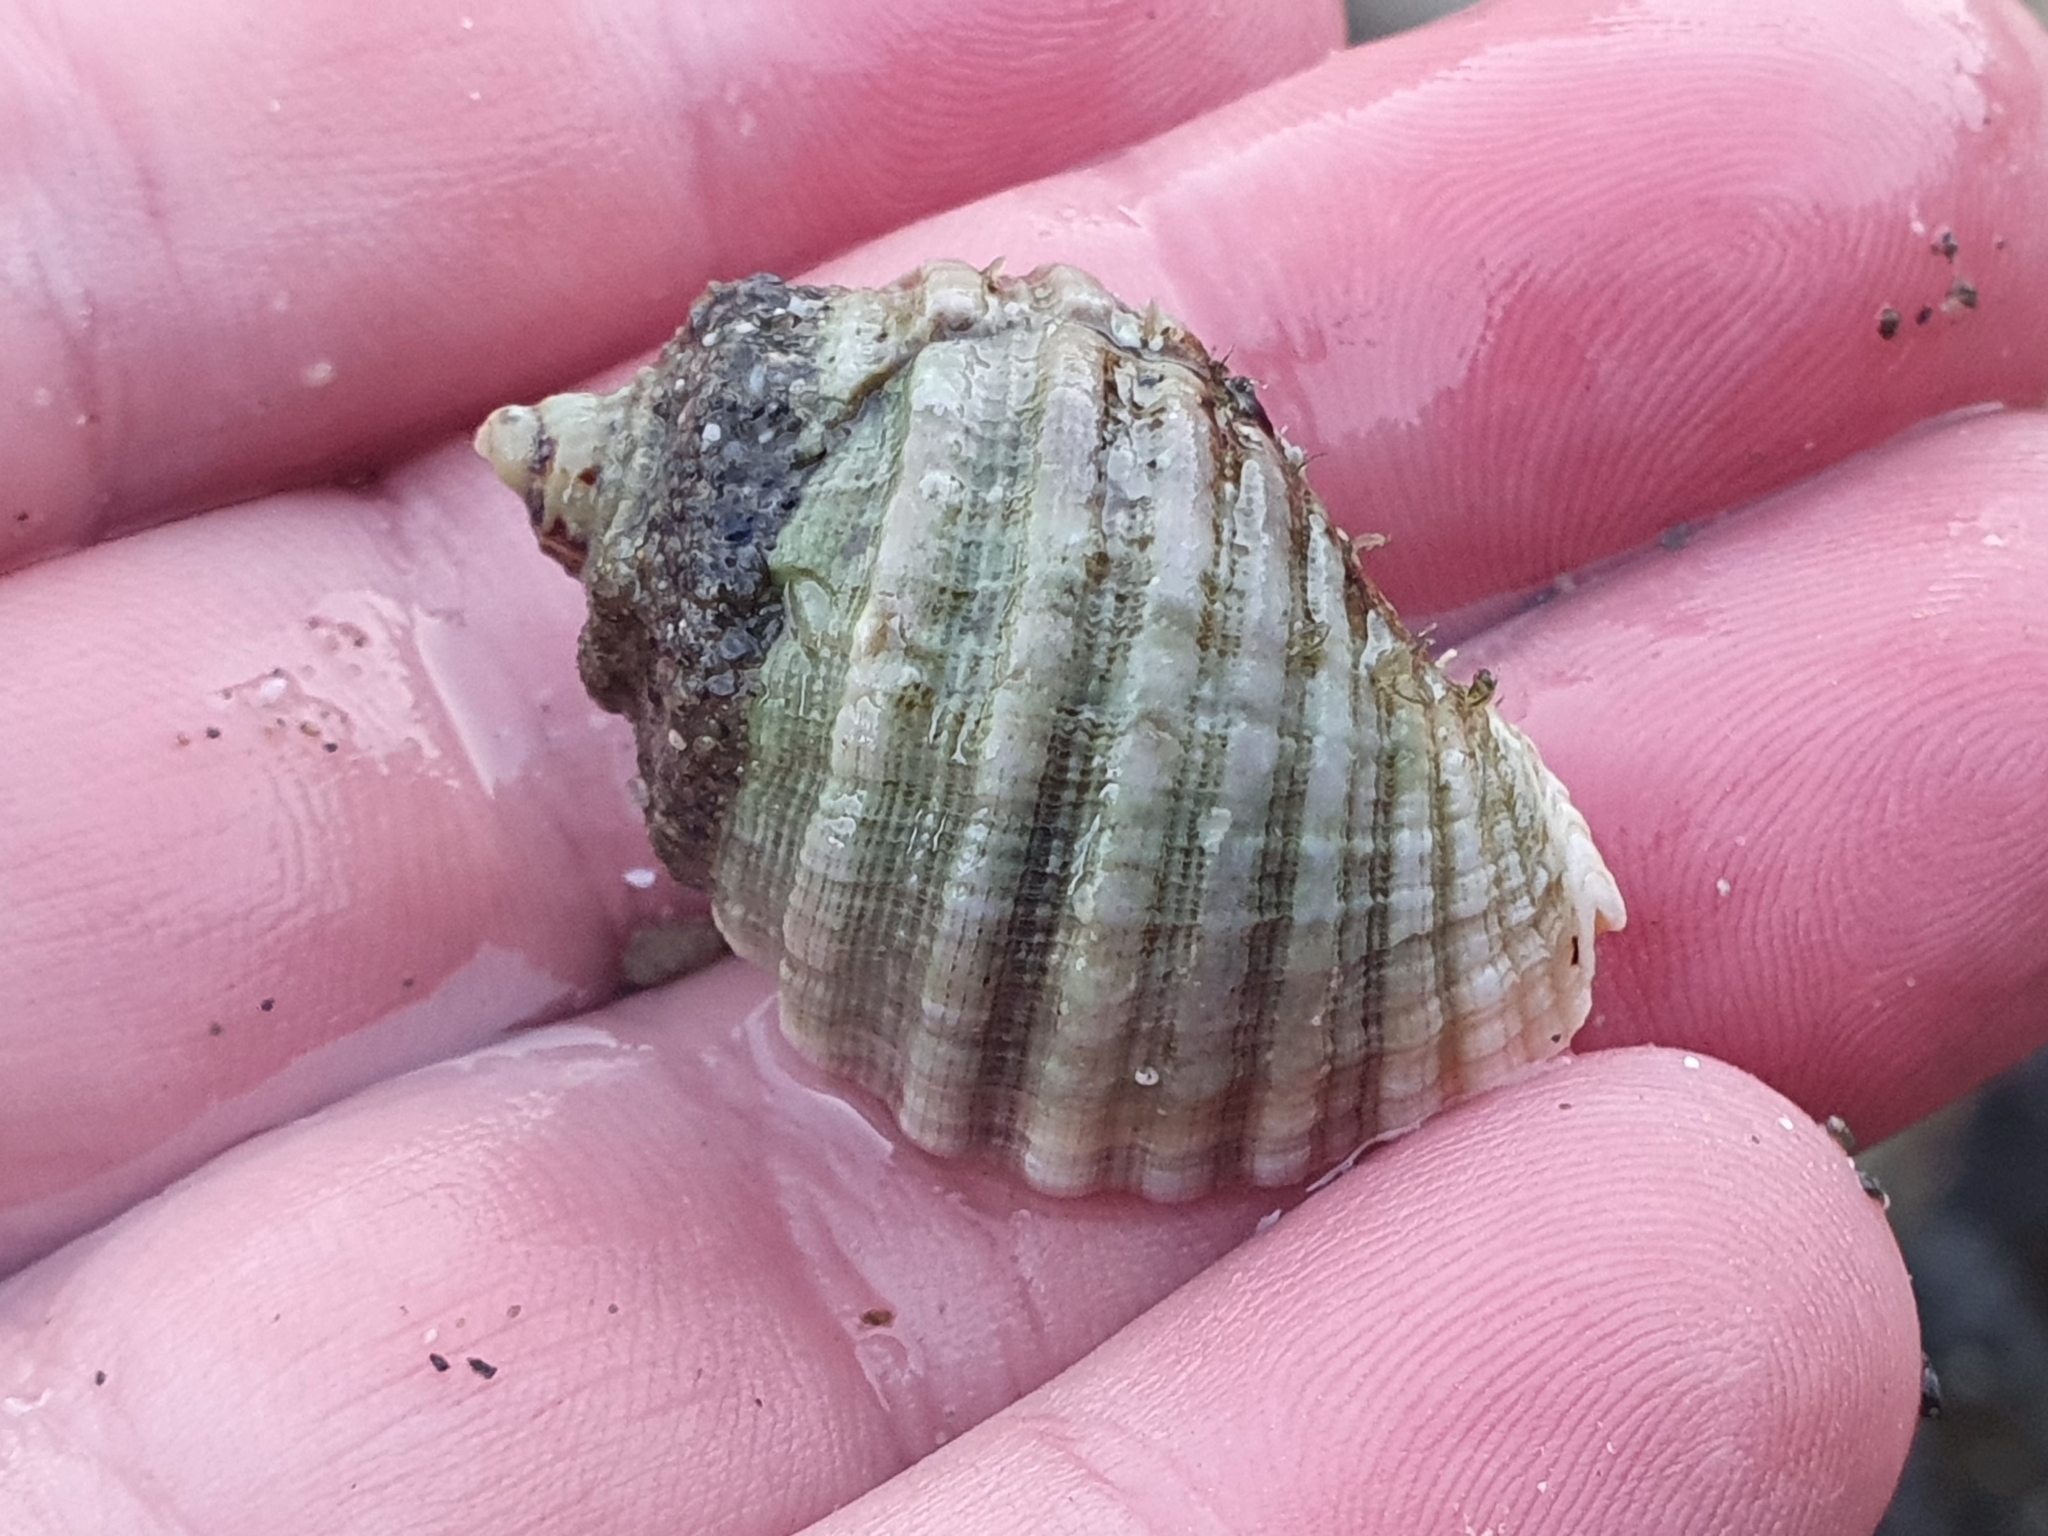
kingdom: Animalia
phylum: Mollusca
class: Gastropoda
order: Neogastropoda
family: Muricidae
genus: Dicathais
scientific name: Dicathais orbita
